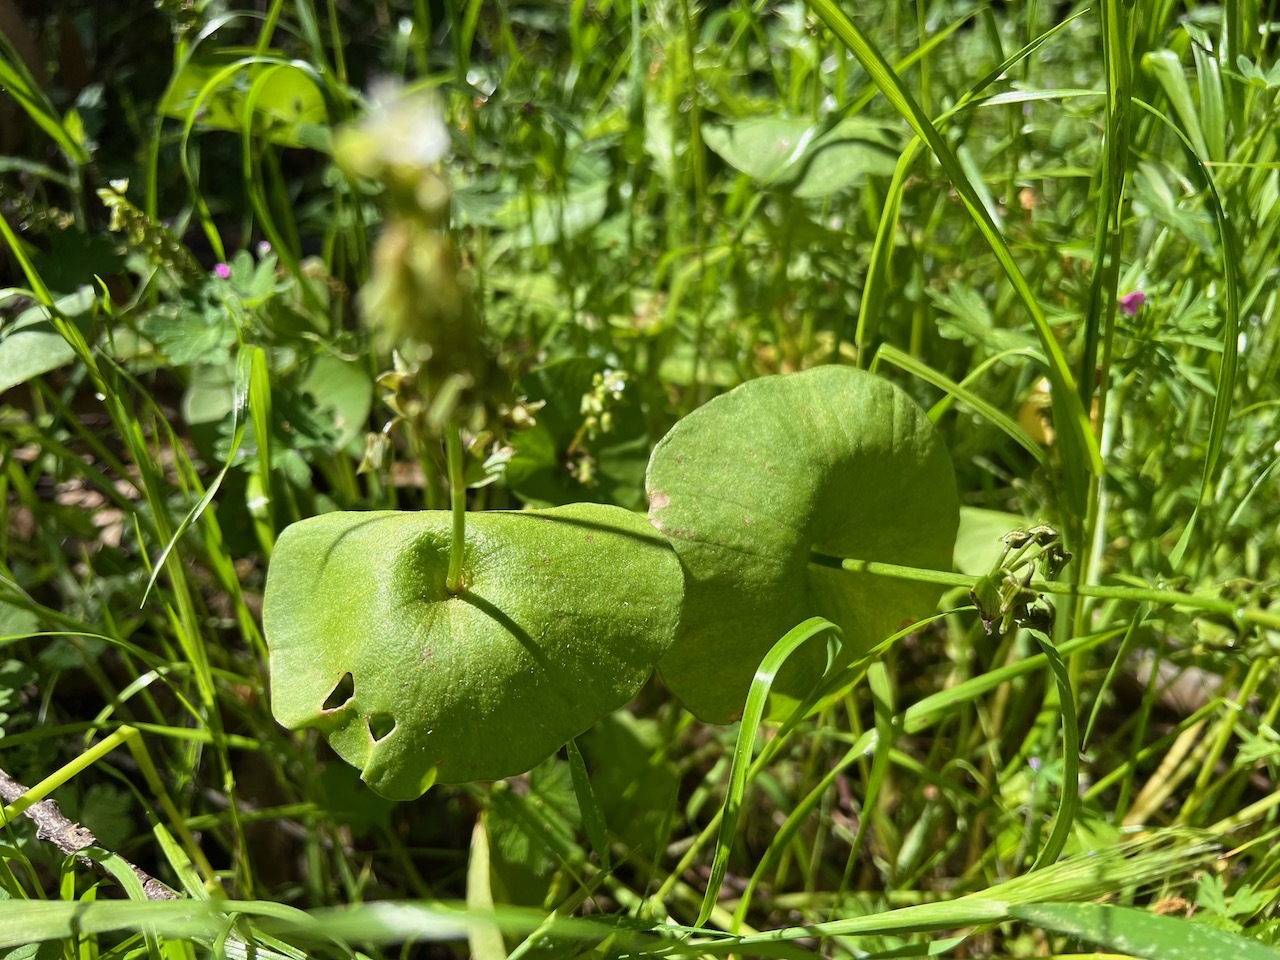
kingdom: Plantae
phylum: Tracheophyta
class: Magnoliopsida
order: Caryophyllales
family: Montiaceae
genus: Claytonia
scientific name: Claytonia perfoliata
